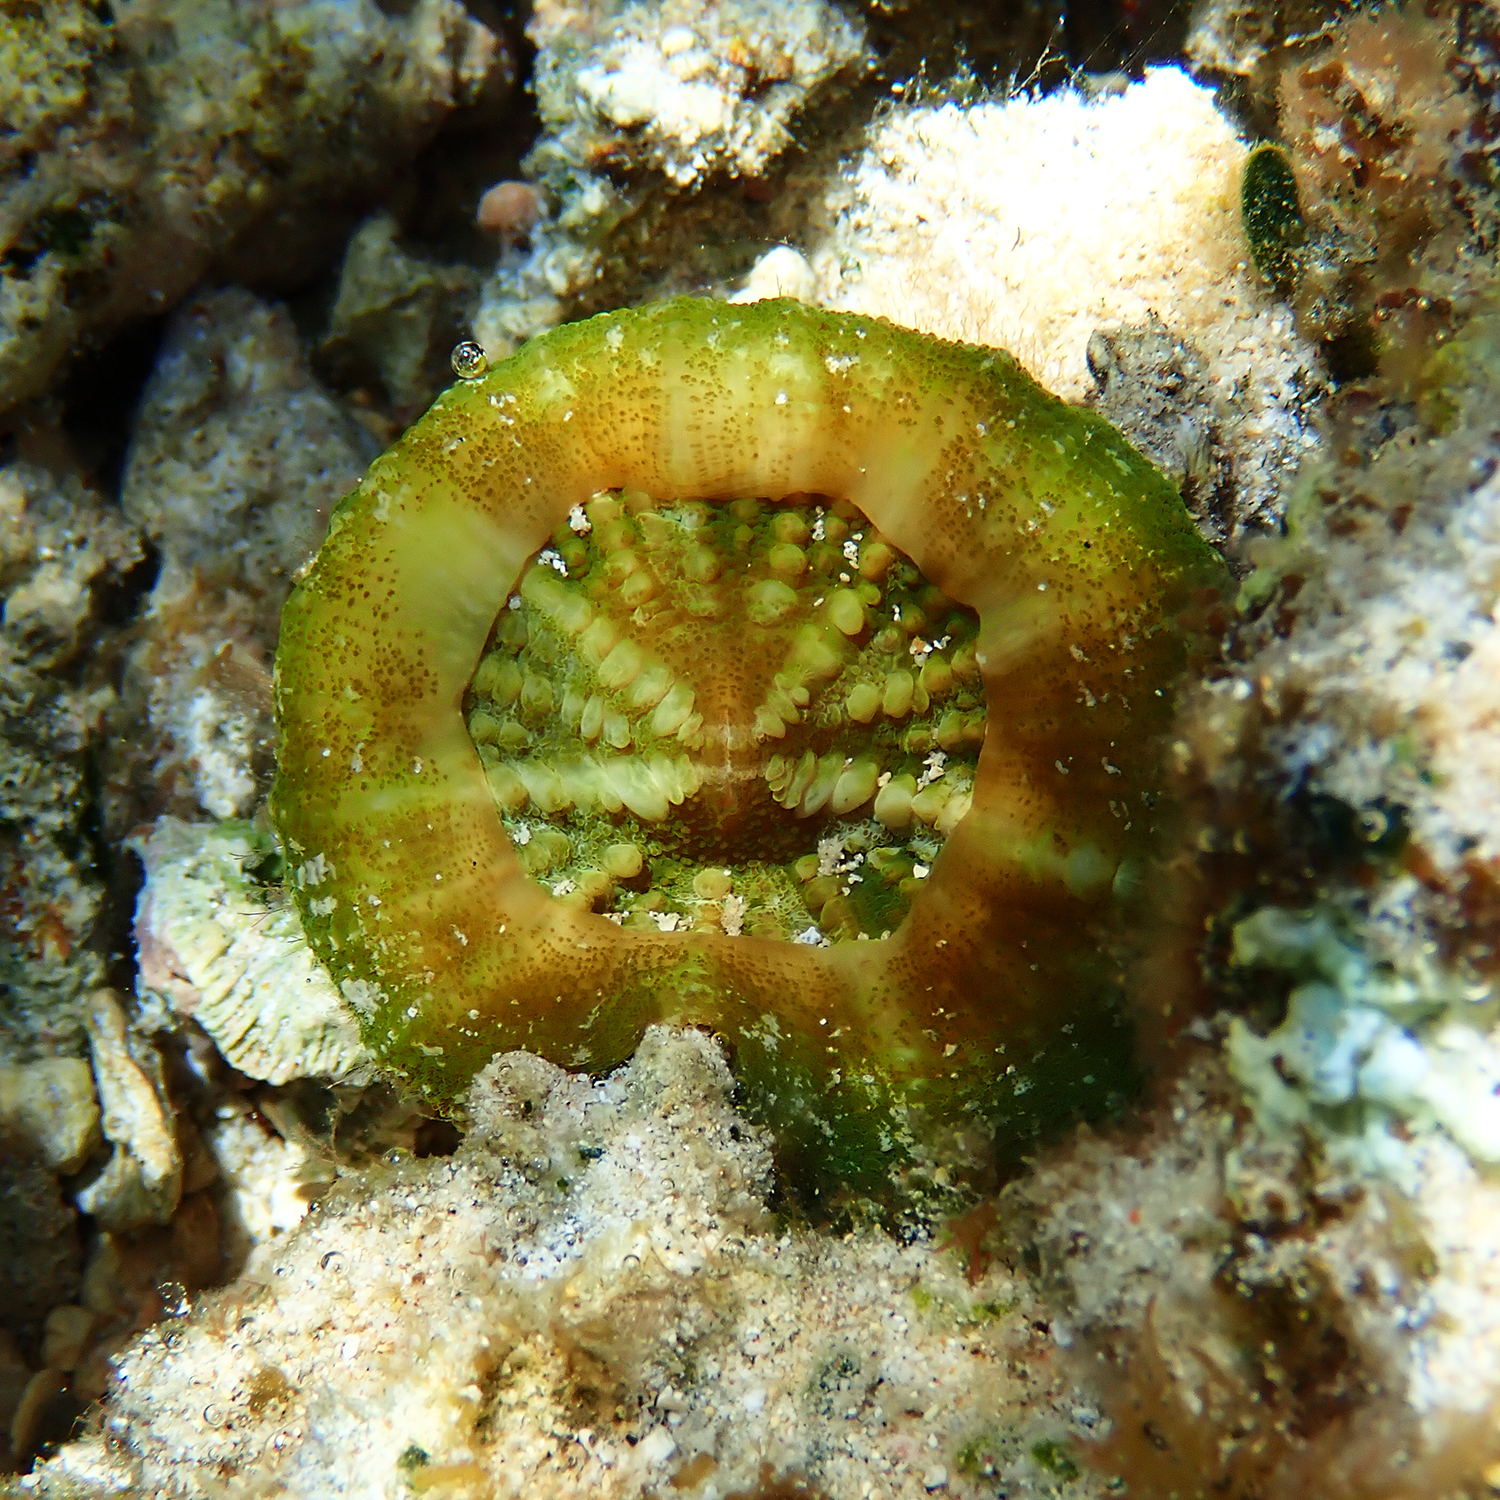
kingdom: Animalia
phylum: Cnidaria
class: Anthozoa
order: Scleractinia
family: Lobophylliidae
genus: Homophyllia
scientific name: Homophyllia australis
